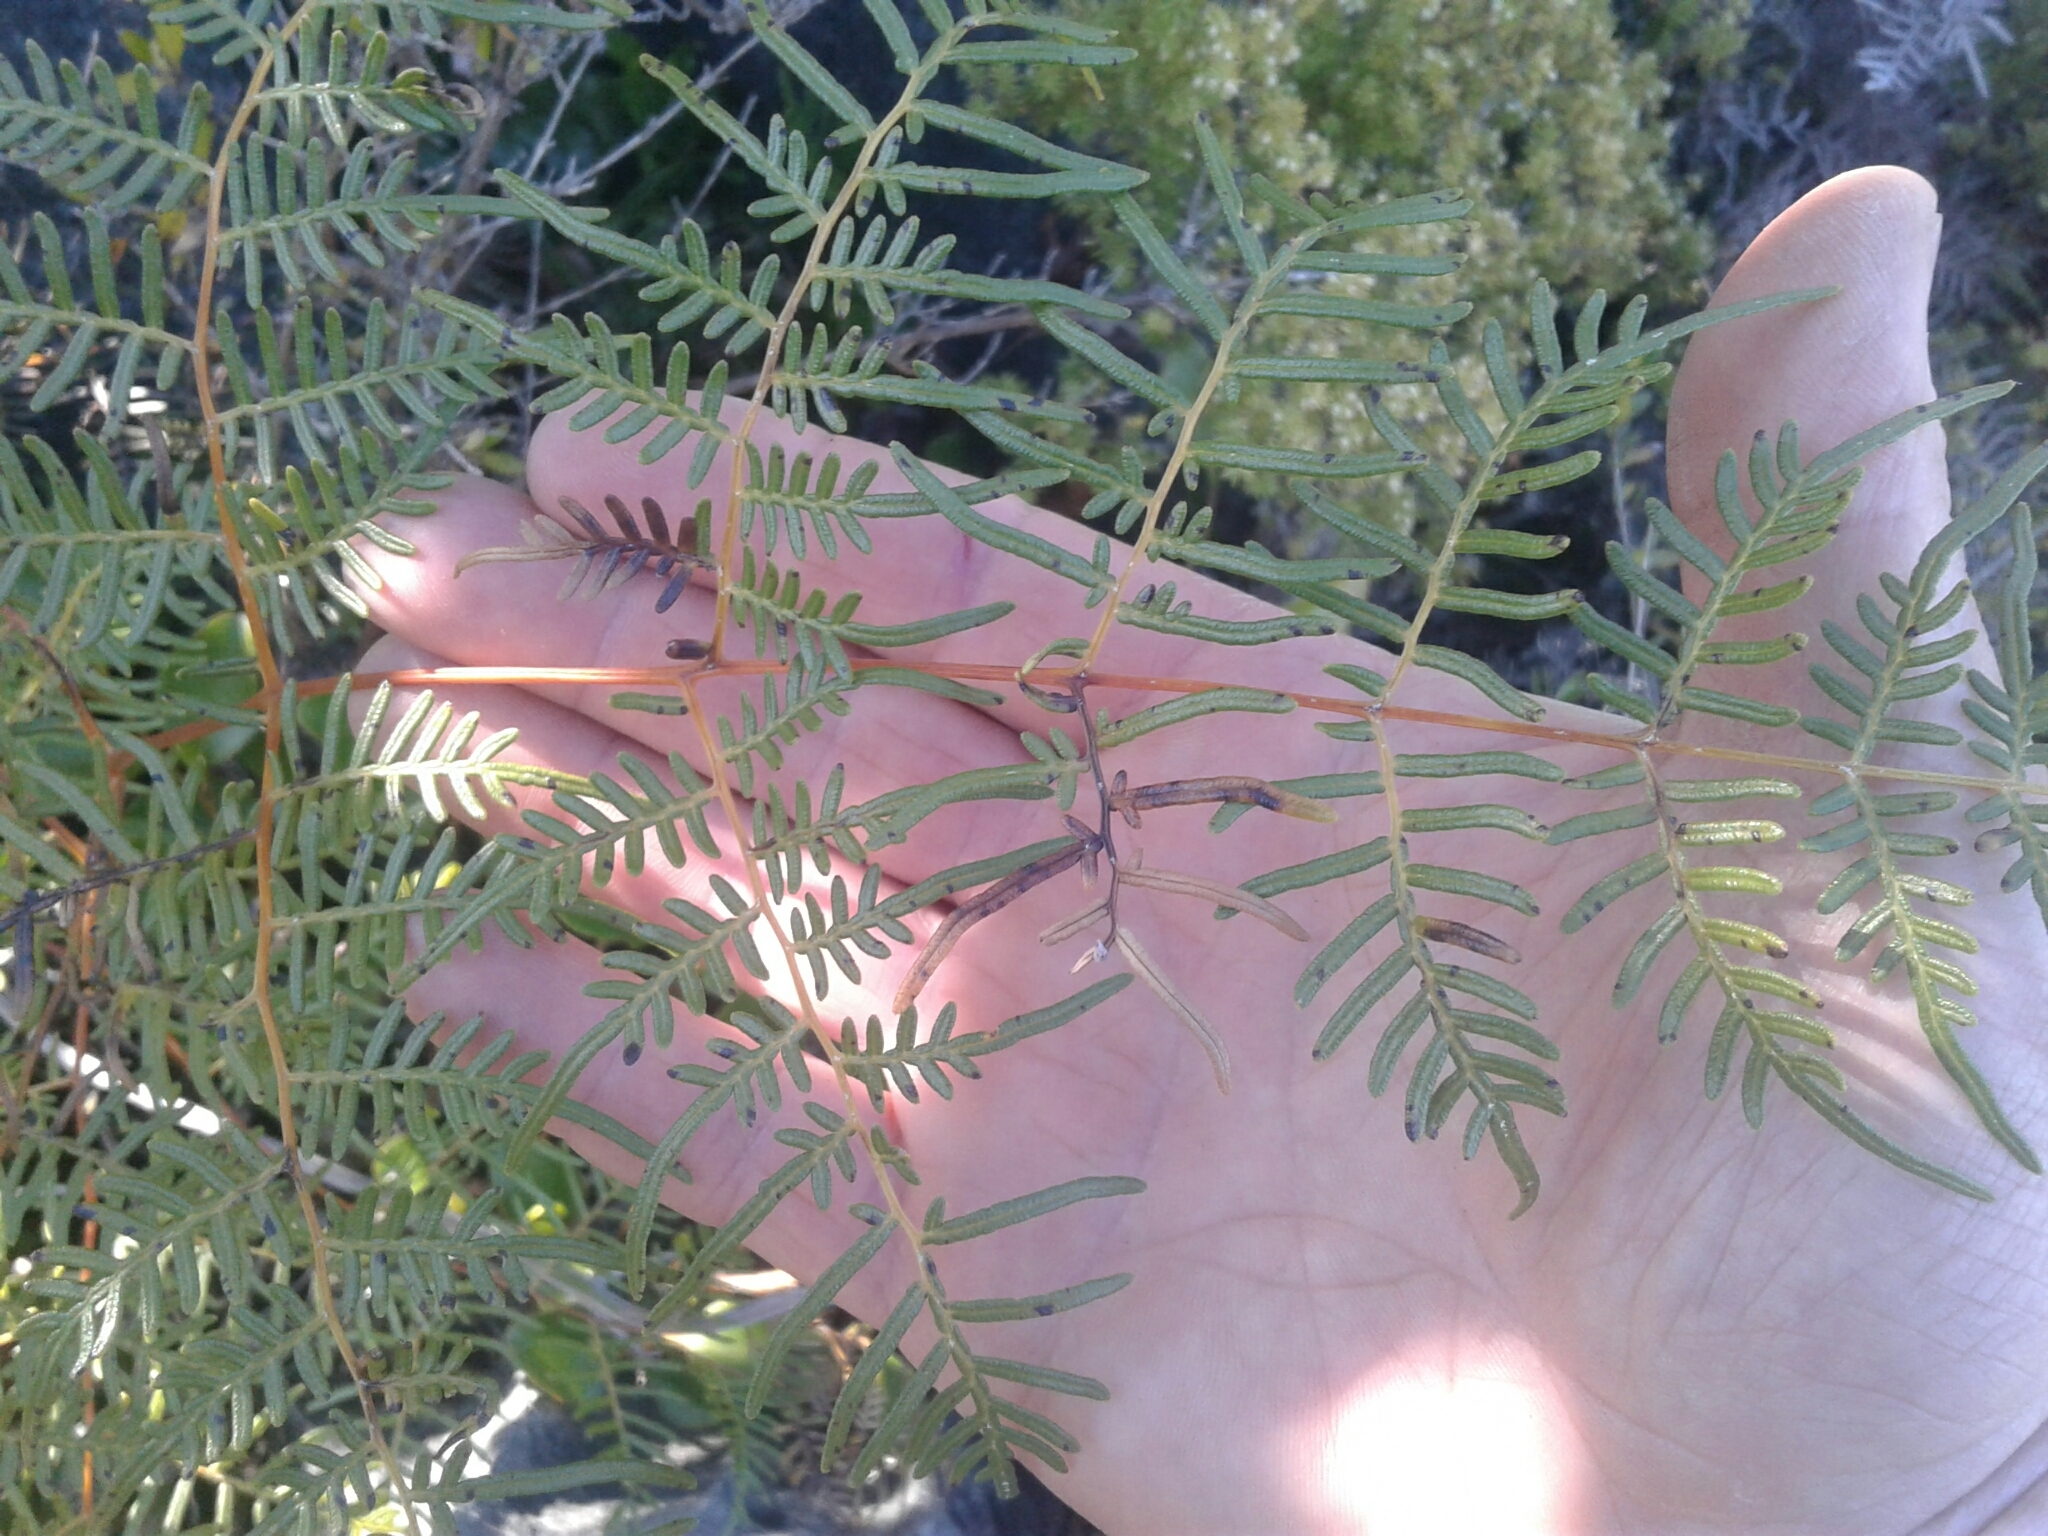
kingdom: Plantae
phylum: Tracheophyta
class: Polypodiopsida
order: Polypodiales
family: Dennstaedtiaceae
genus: Pteridium
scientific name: Pteridium esculentum
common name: Bracken fern
